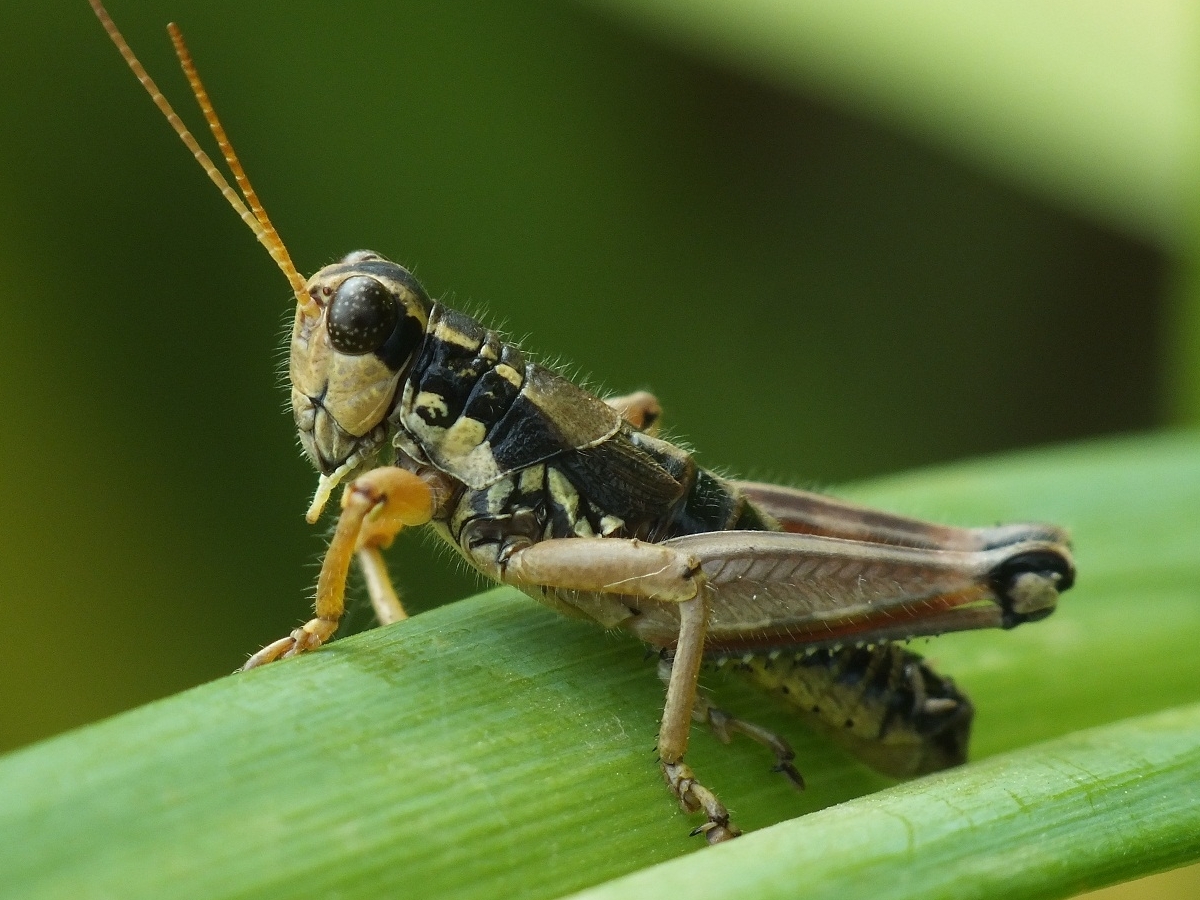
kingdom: Animalia
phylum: Arthropoda
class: Insecta
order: Orthoptera
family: Acrididae
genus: Podisma
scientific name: Podisma pedestris
